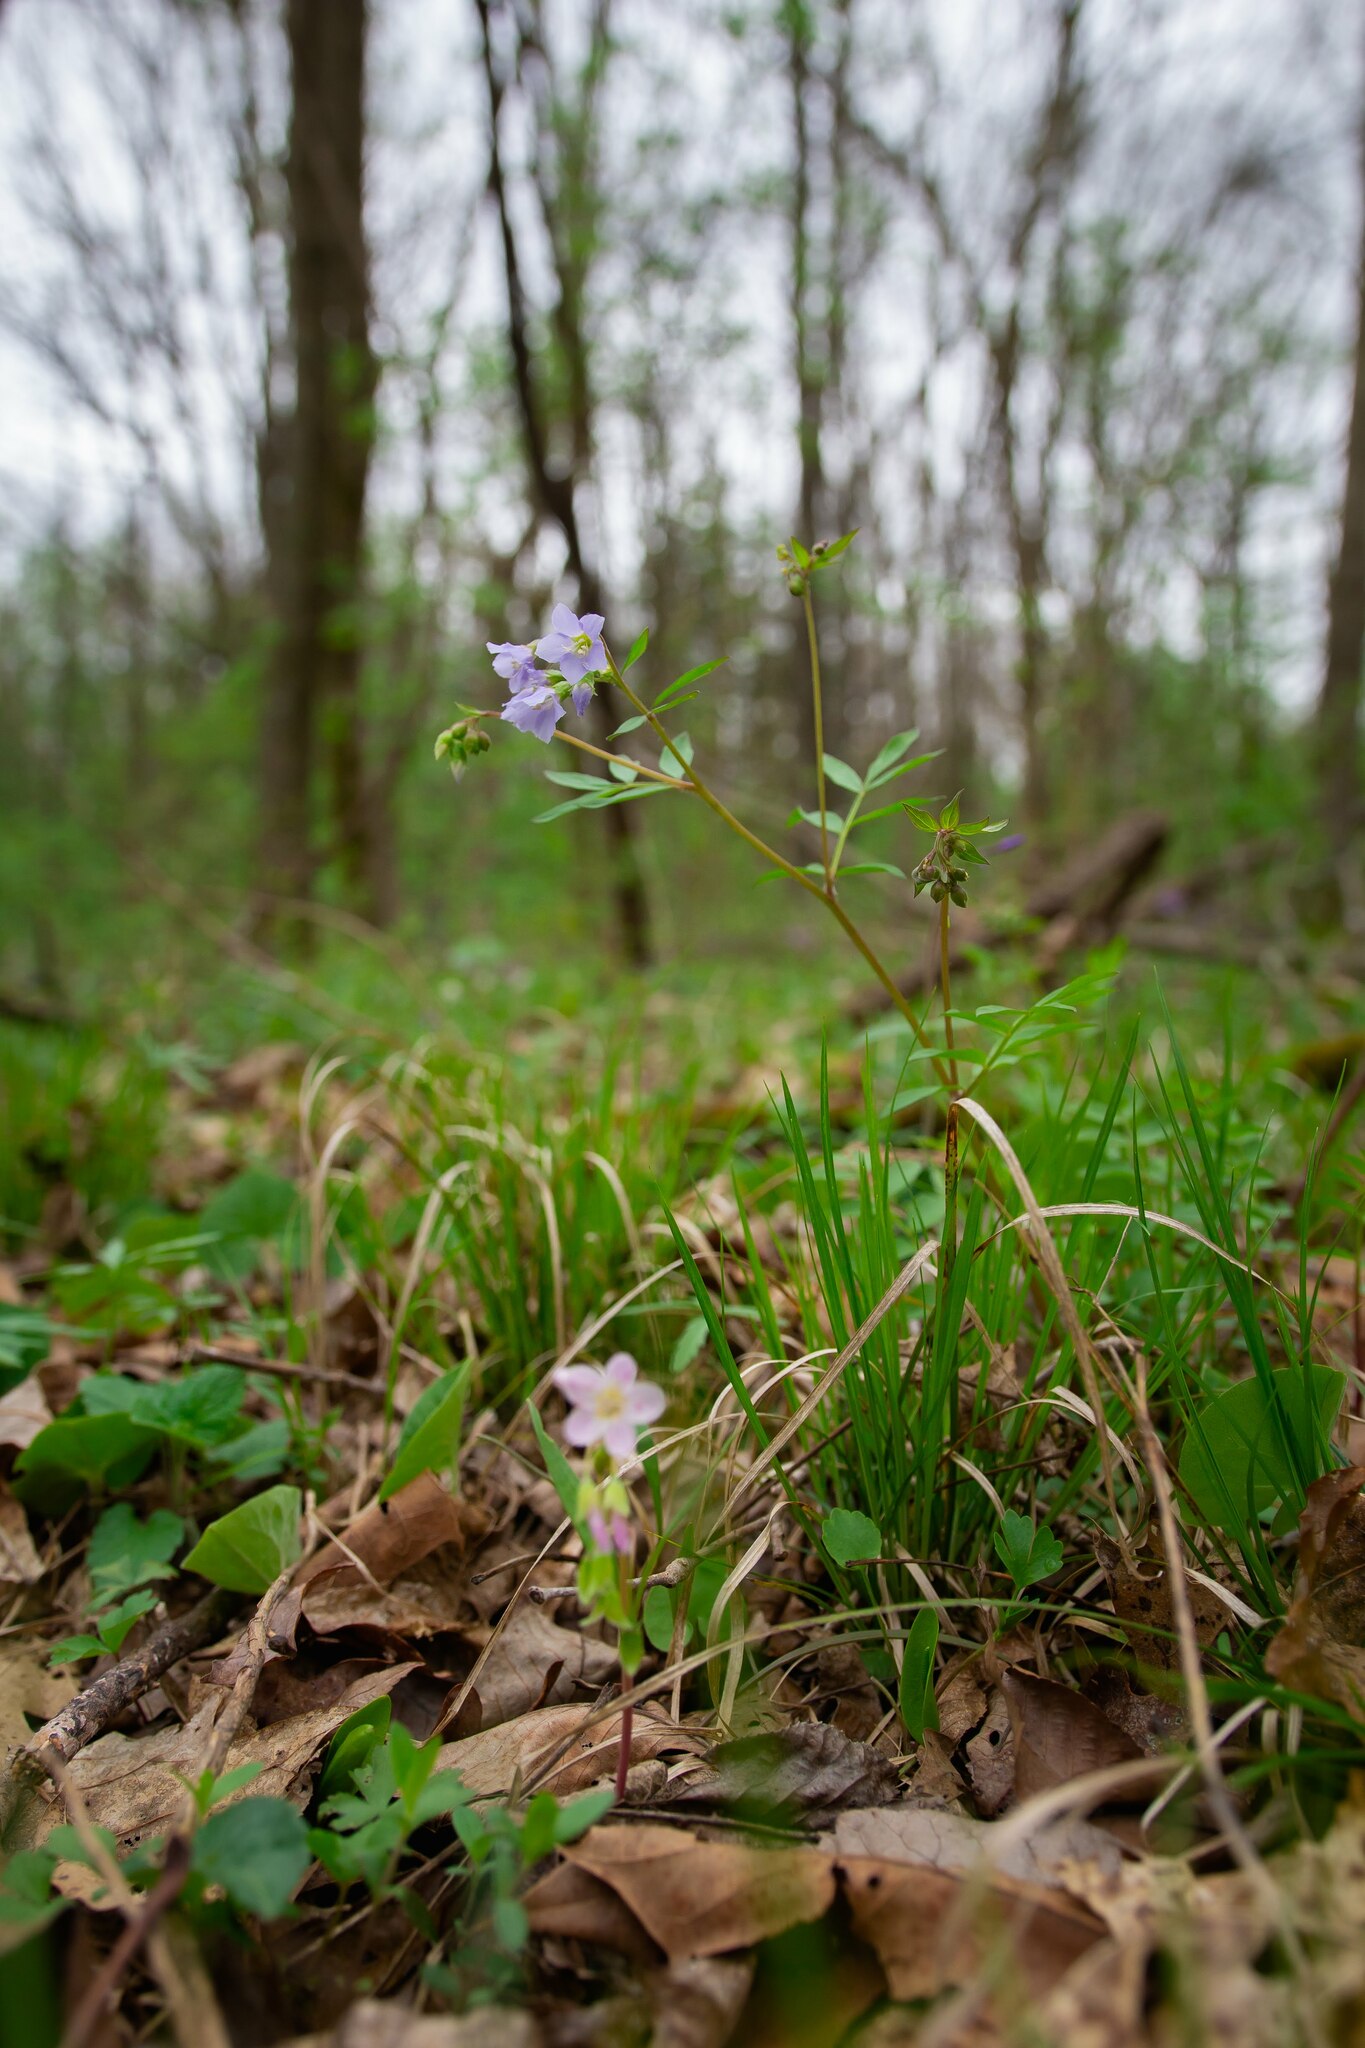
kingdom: Plantae
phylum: Tracheophyta
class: Magnoliopsida
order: Ericales
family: Polemoniaceae
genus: Polemonium
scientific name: Polemonium reptans
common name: Creeping jacob's-ladder
